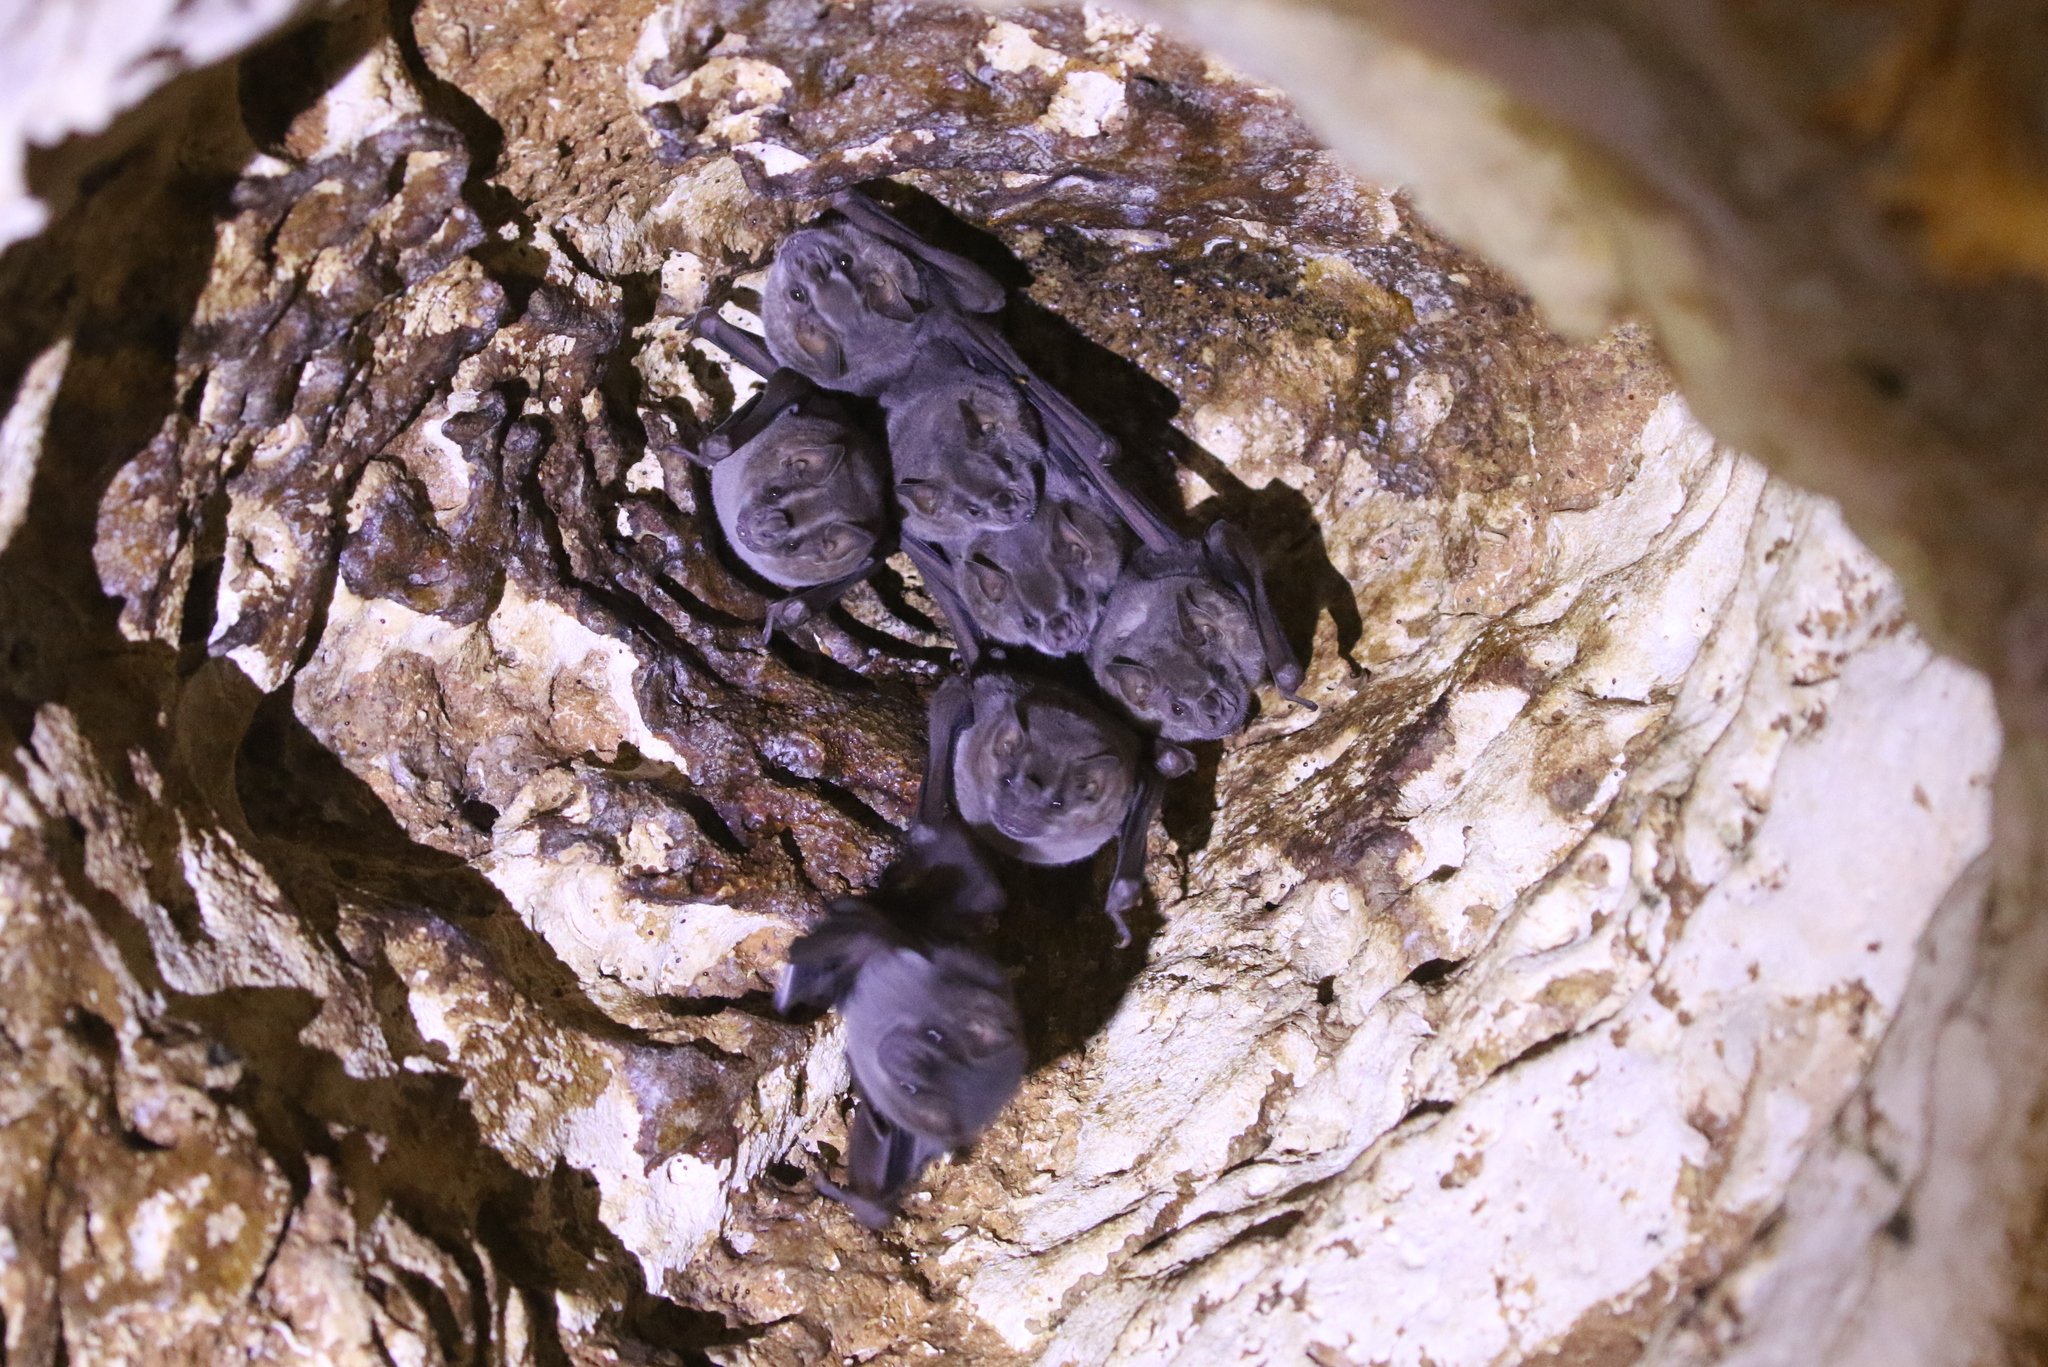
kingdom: Animalia
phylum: Chordata
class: Mammalia
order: Chiroptera
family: Phyllostomidae
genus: Artibeus
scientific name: Artibeus jamaicensis
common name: Jamaican fruit-eating bat
